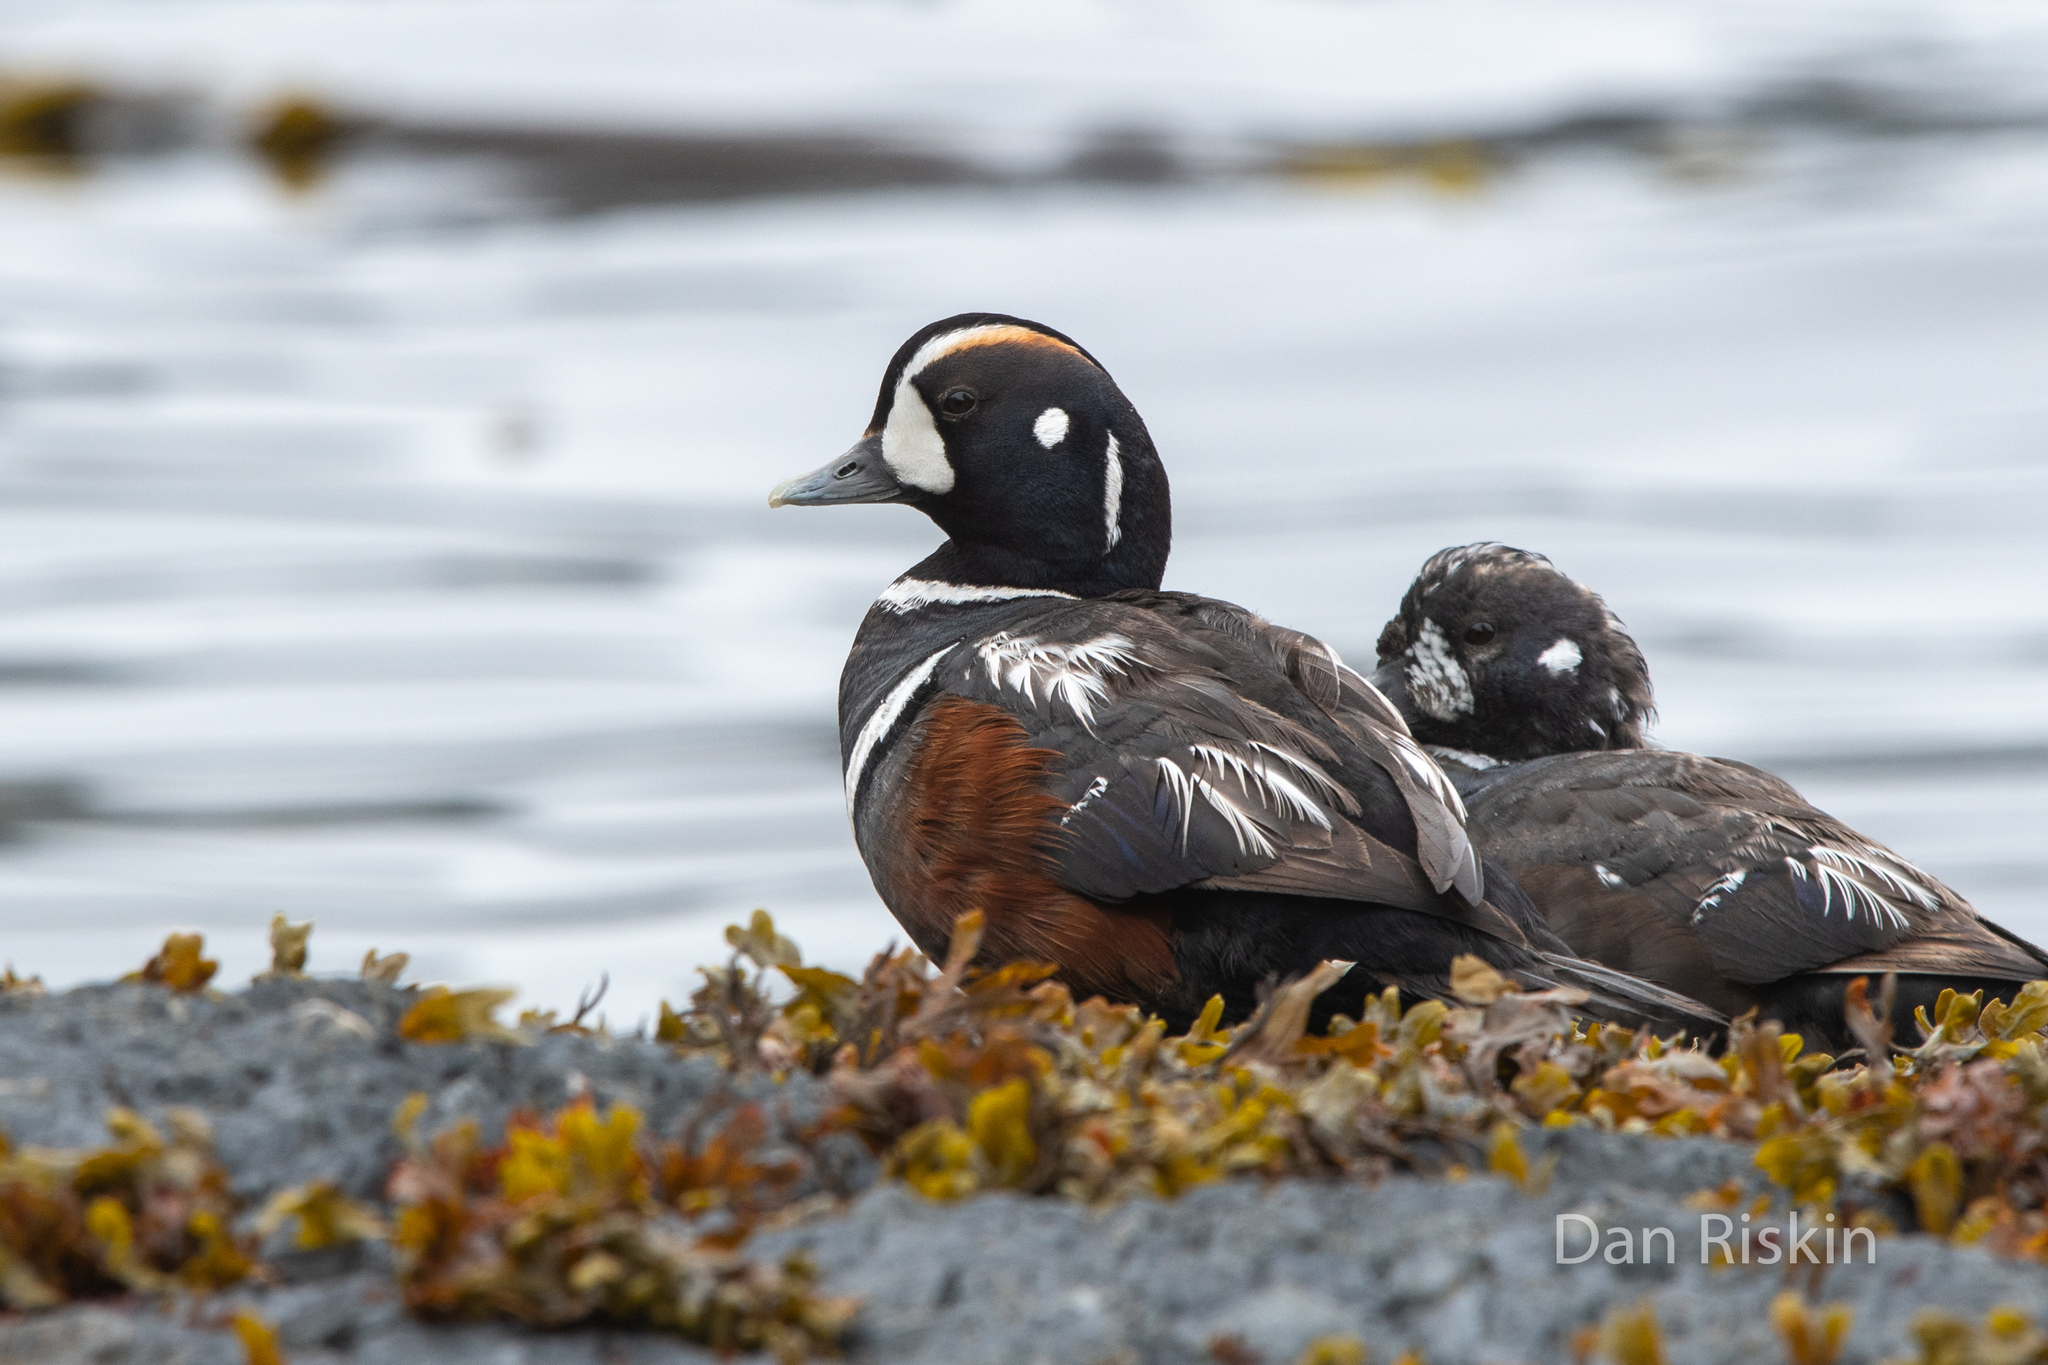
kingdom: Animalia
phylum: Chordata
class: Aves
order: Anseriformes
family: Anatidae
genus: Histrionicus
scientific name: Histrionicus histrionicus
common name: Harlequin duck
